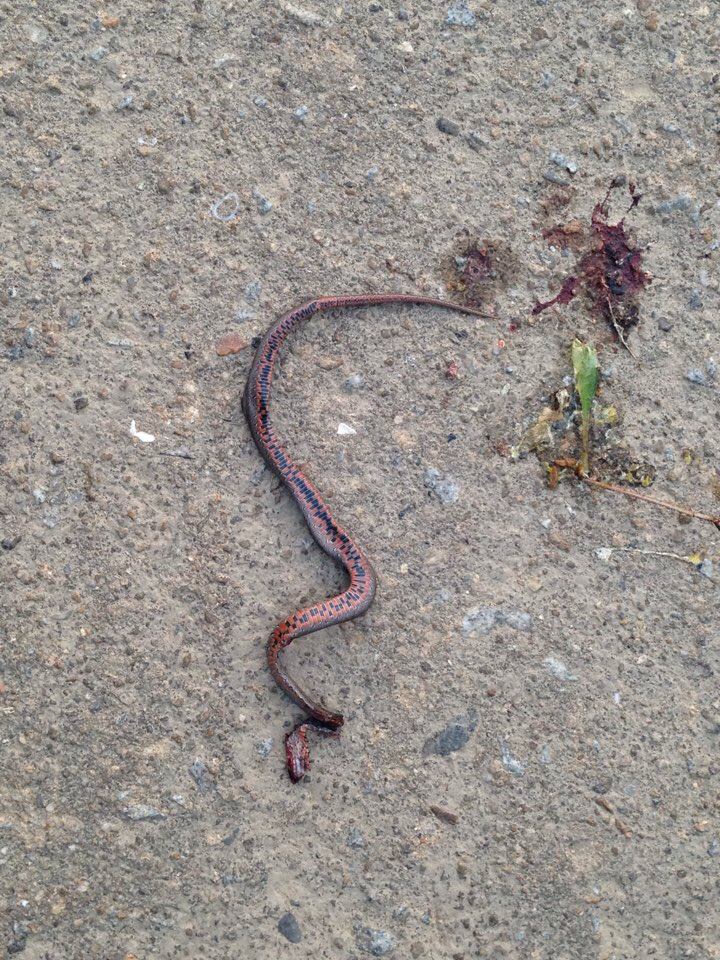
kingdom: Animalia
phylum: Chordata
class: Squamata
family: Colubridae
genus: Oocatochus
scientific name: Oocatochus rufodorsatus
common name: Frog-eating rat snake
